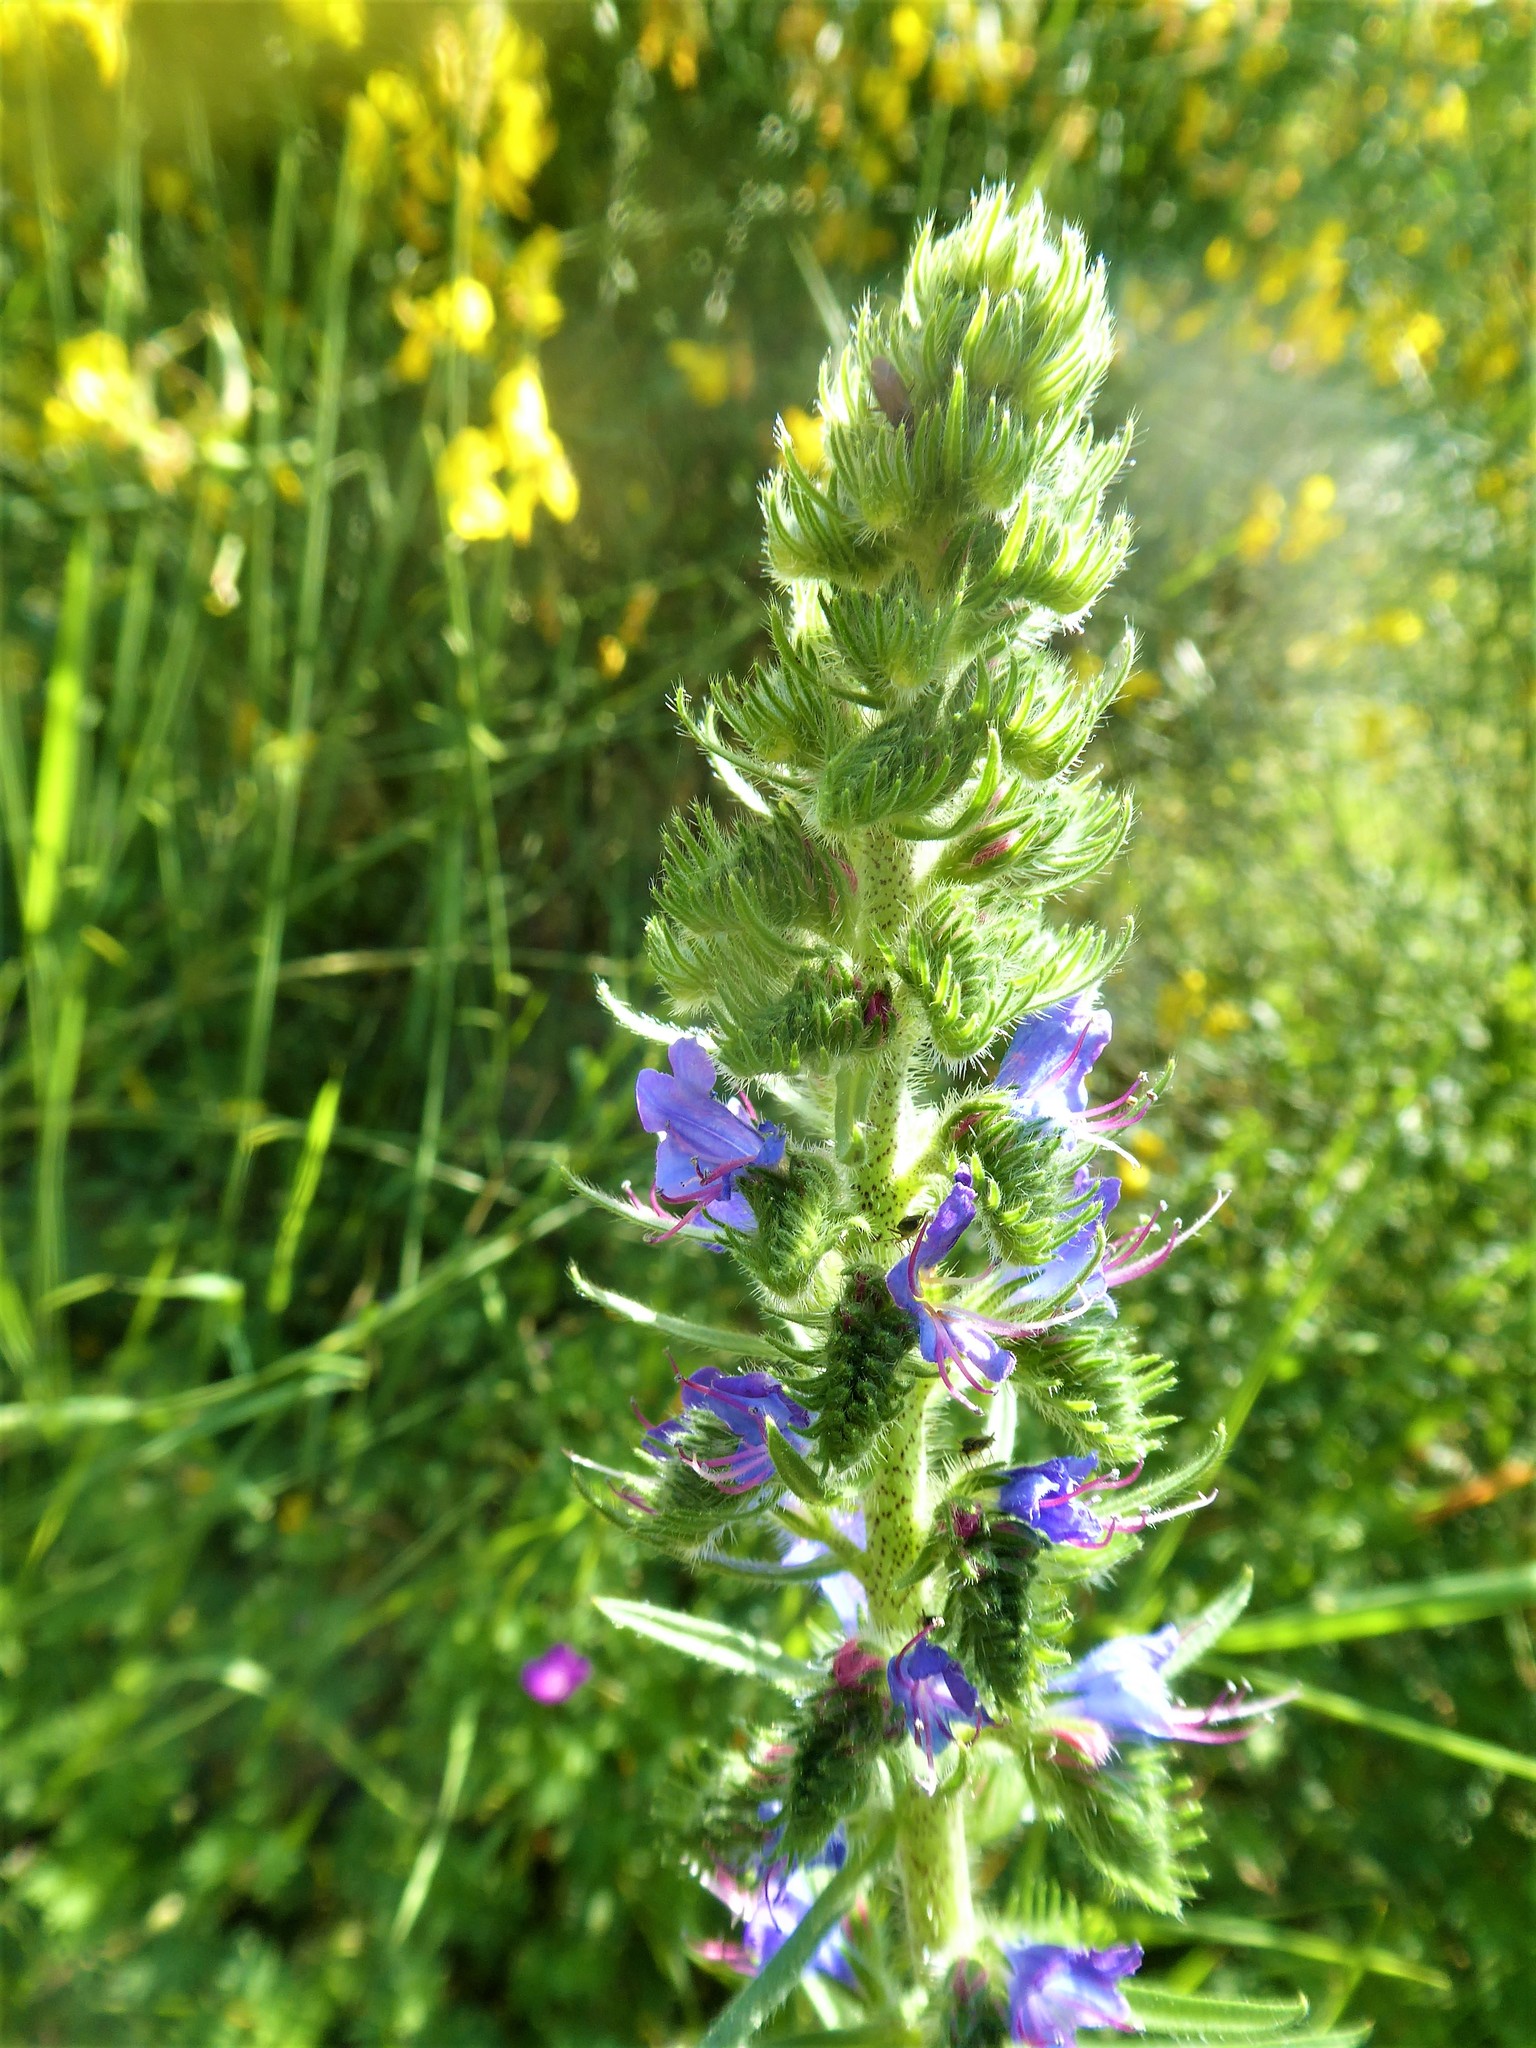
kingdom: Plantae
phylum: Tracheophyta
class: Magnoliopsida
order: Boraginales
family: Boraginaceae
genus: Echium
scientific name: Echium vulgare
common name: Common viper's bugloss
